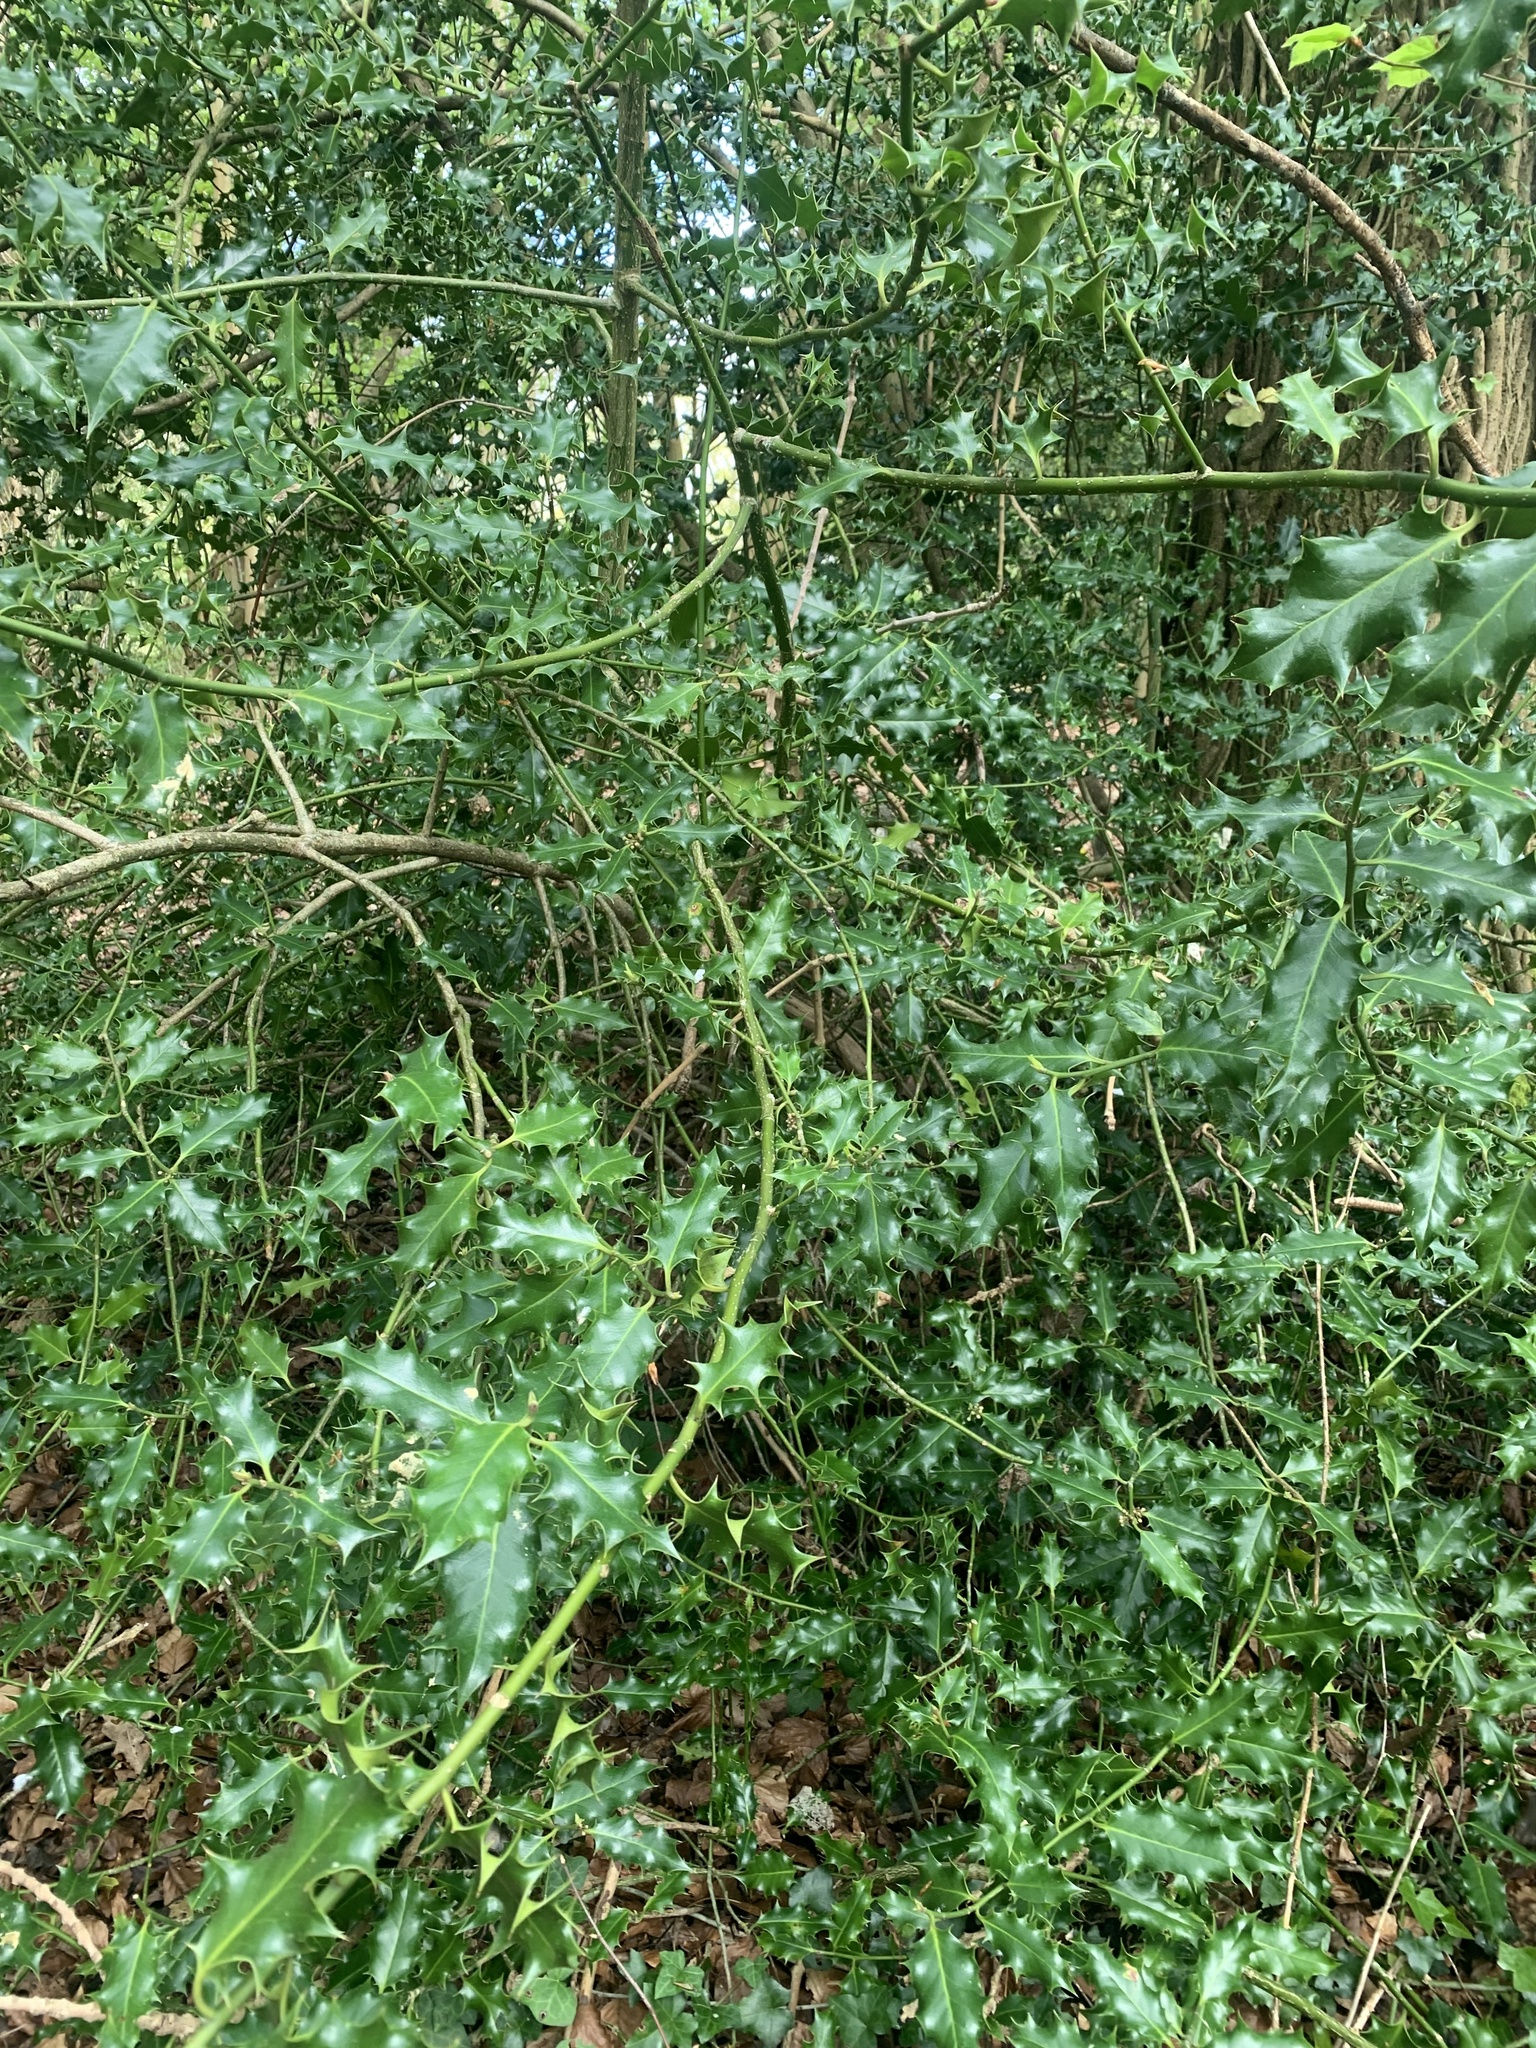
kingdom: Plantae
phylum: Tracheophyta
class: Magnoliopsida
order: Aquifoliales
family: Aquifoliaceae
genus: Ilex
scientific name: Ilex aquifolium
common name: English holly
